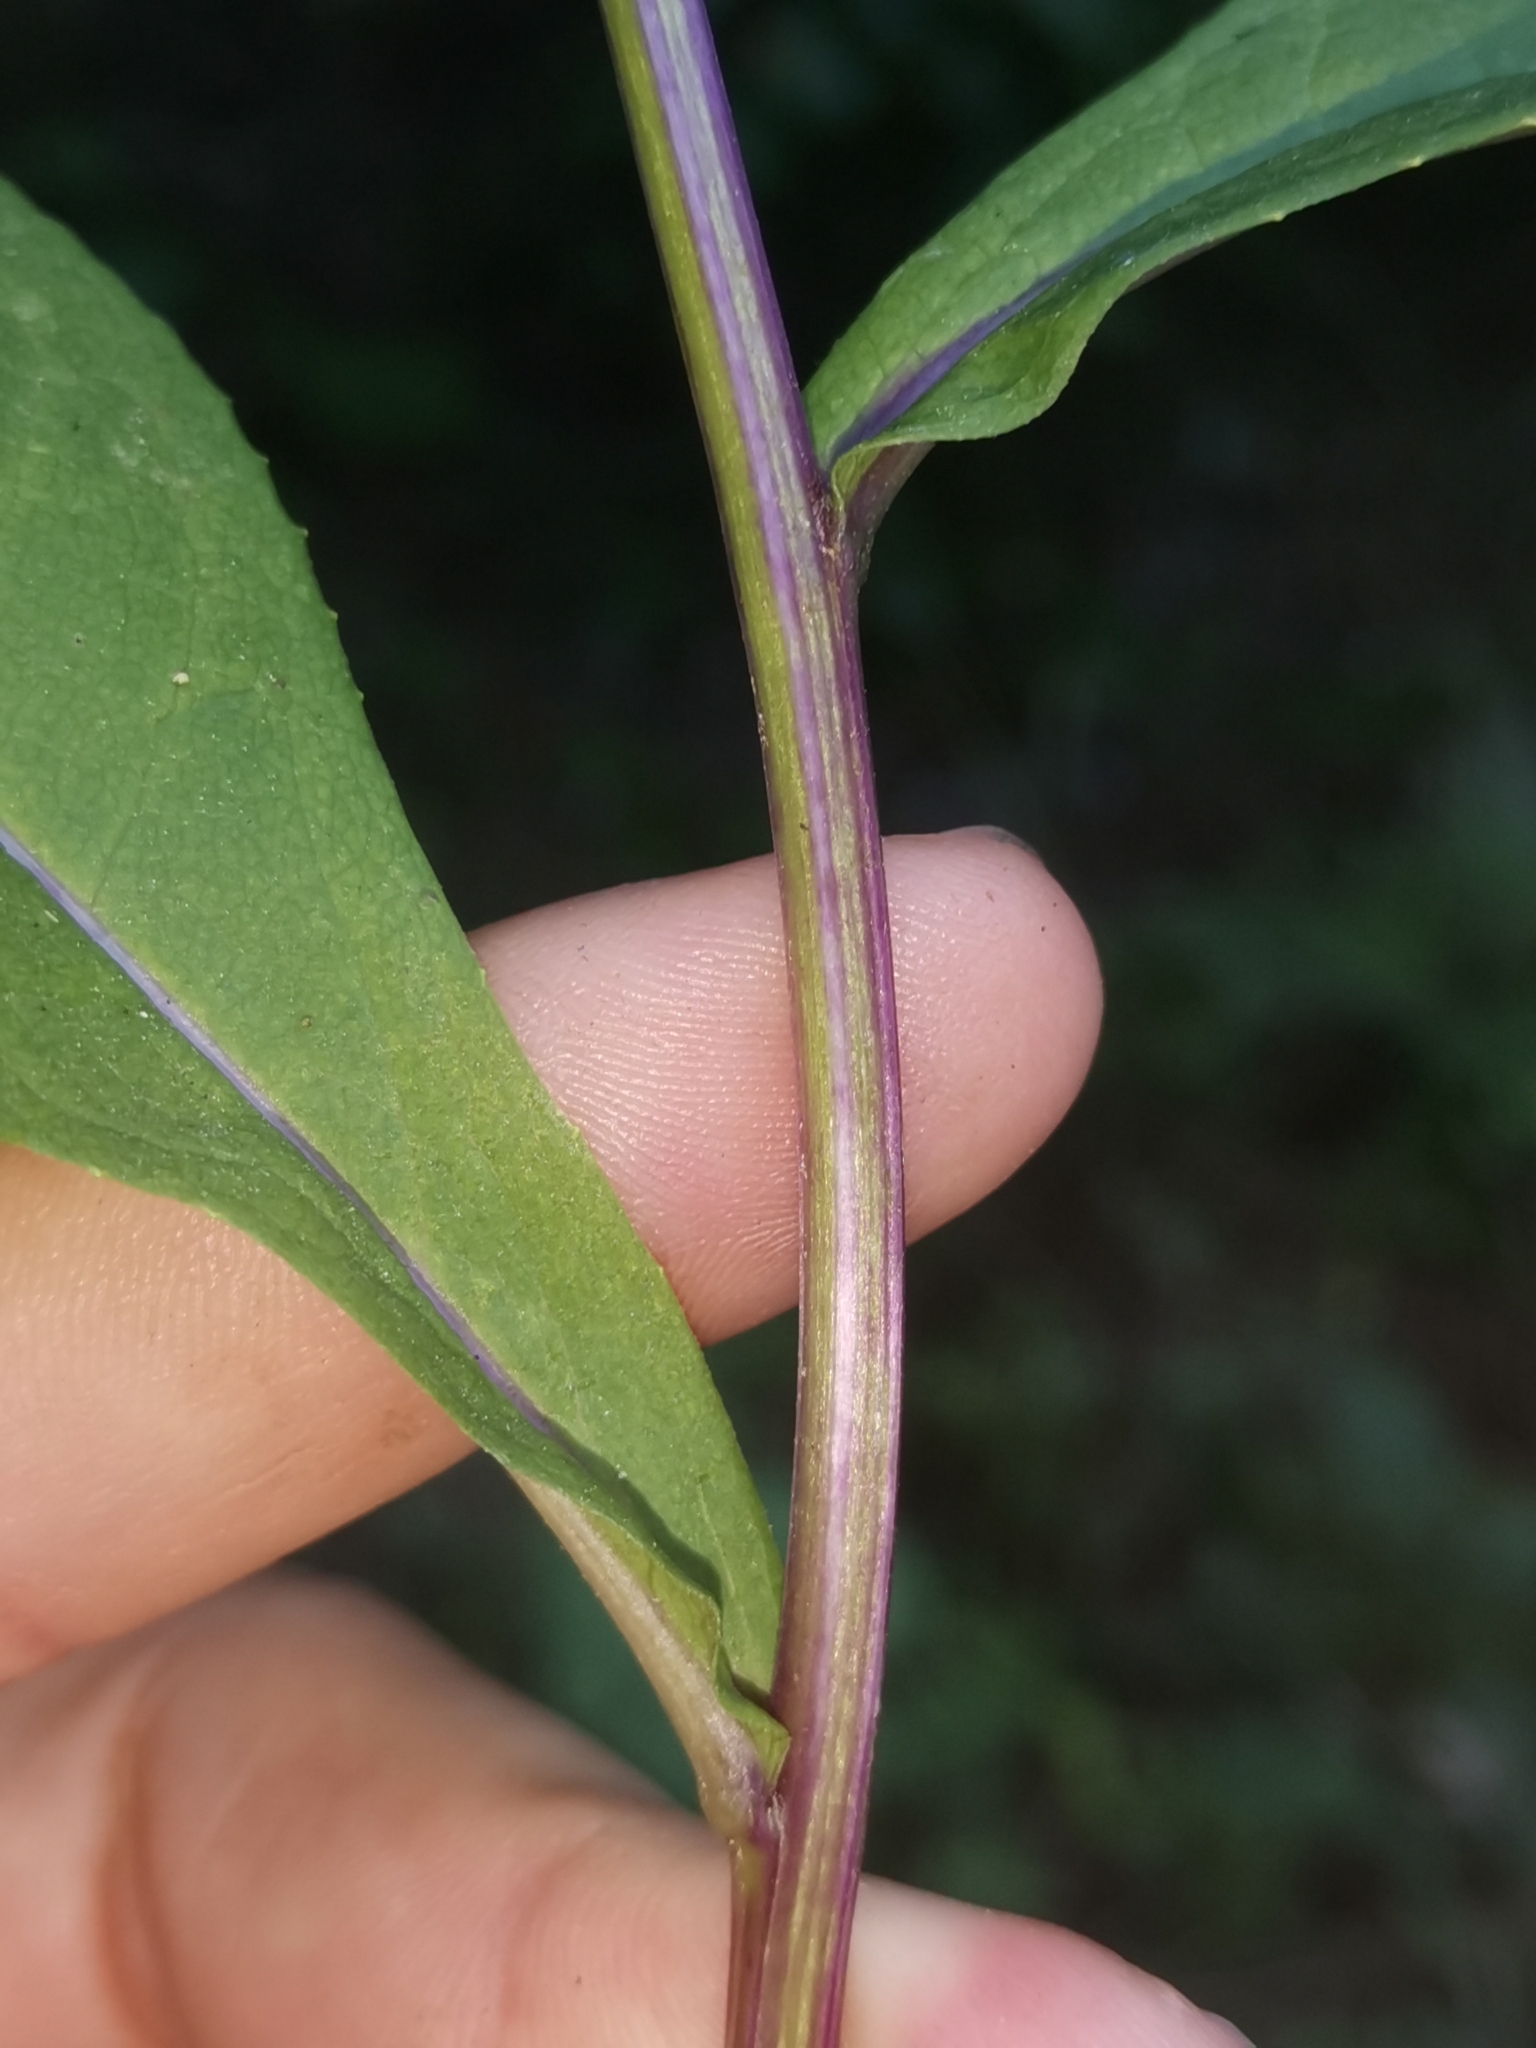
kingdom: Plantae
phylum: Tracheophyta
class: Magnoliopsida
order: Asterales
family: Asteraceae
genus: Senecio
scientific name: Senecio hercynicus
